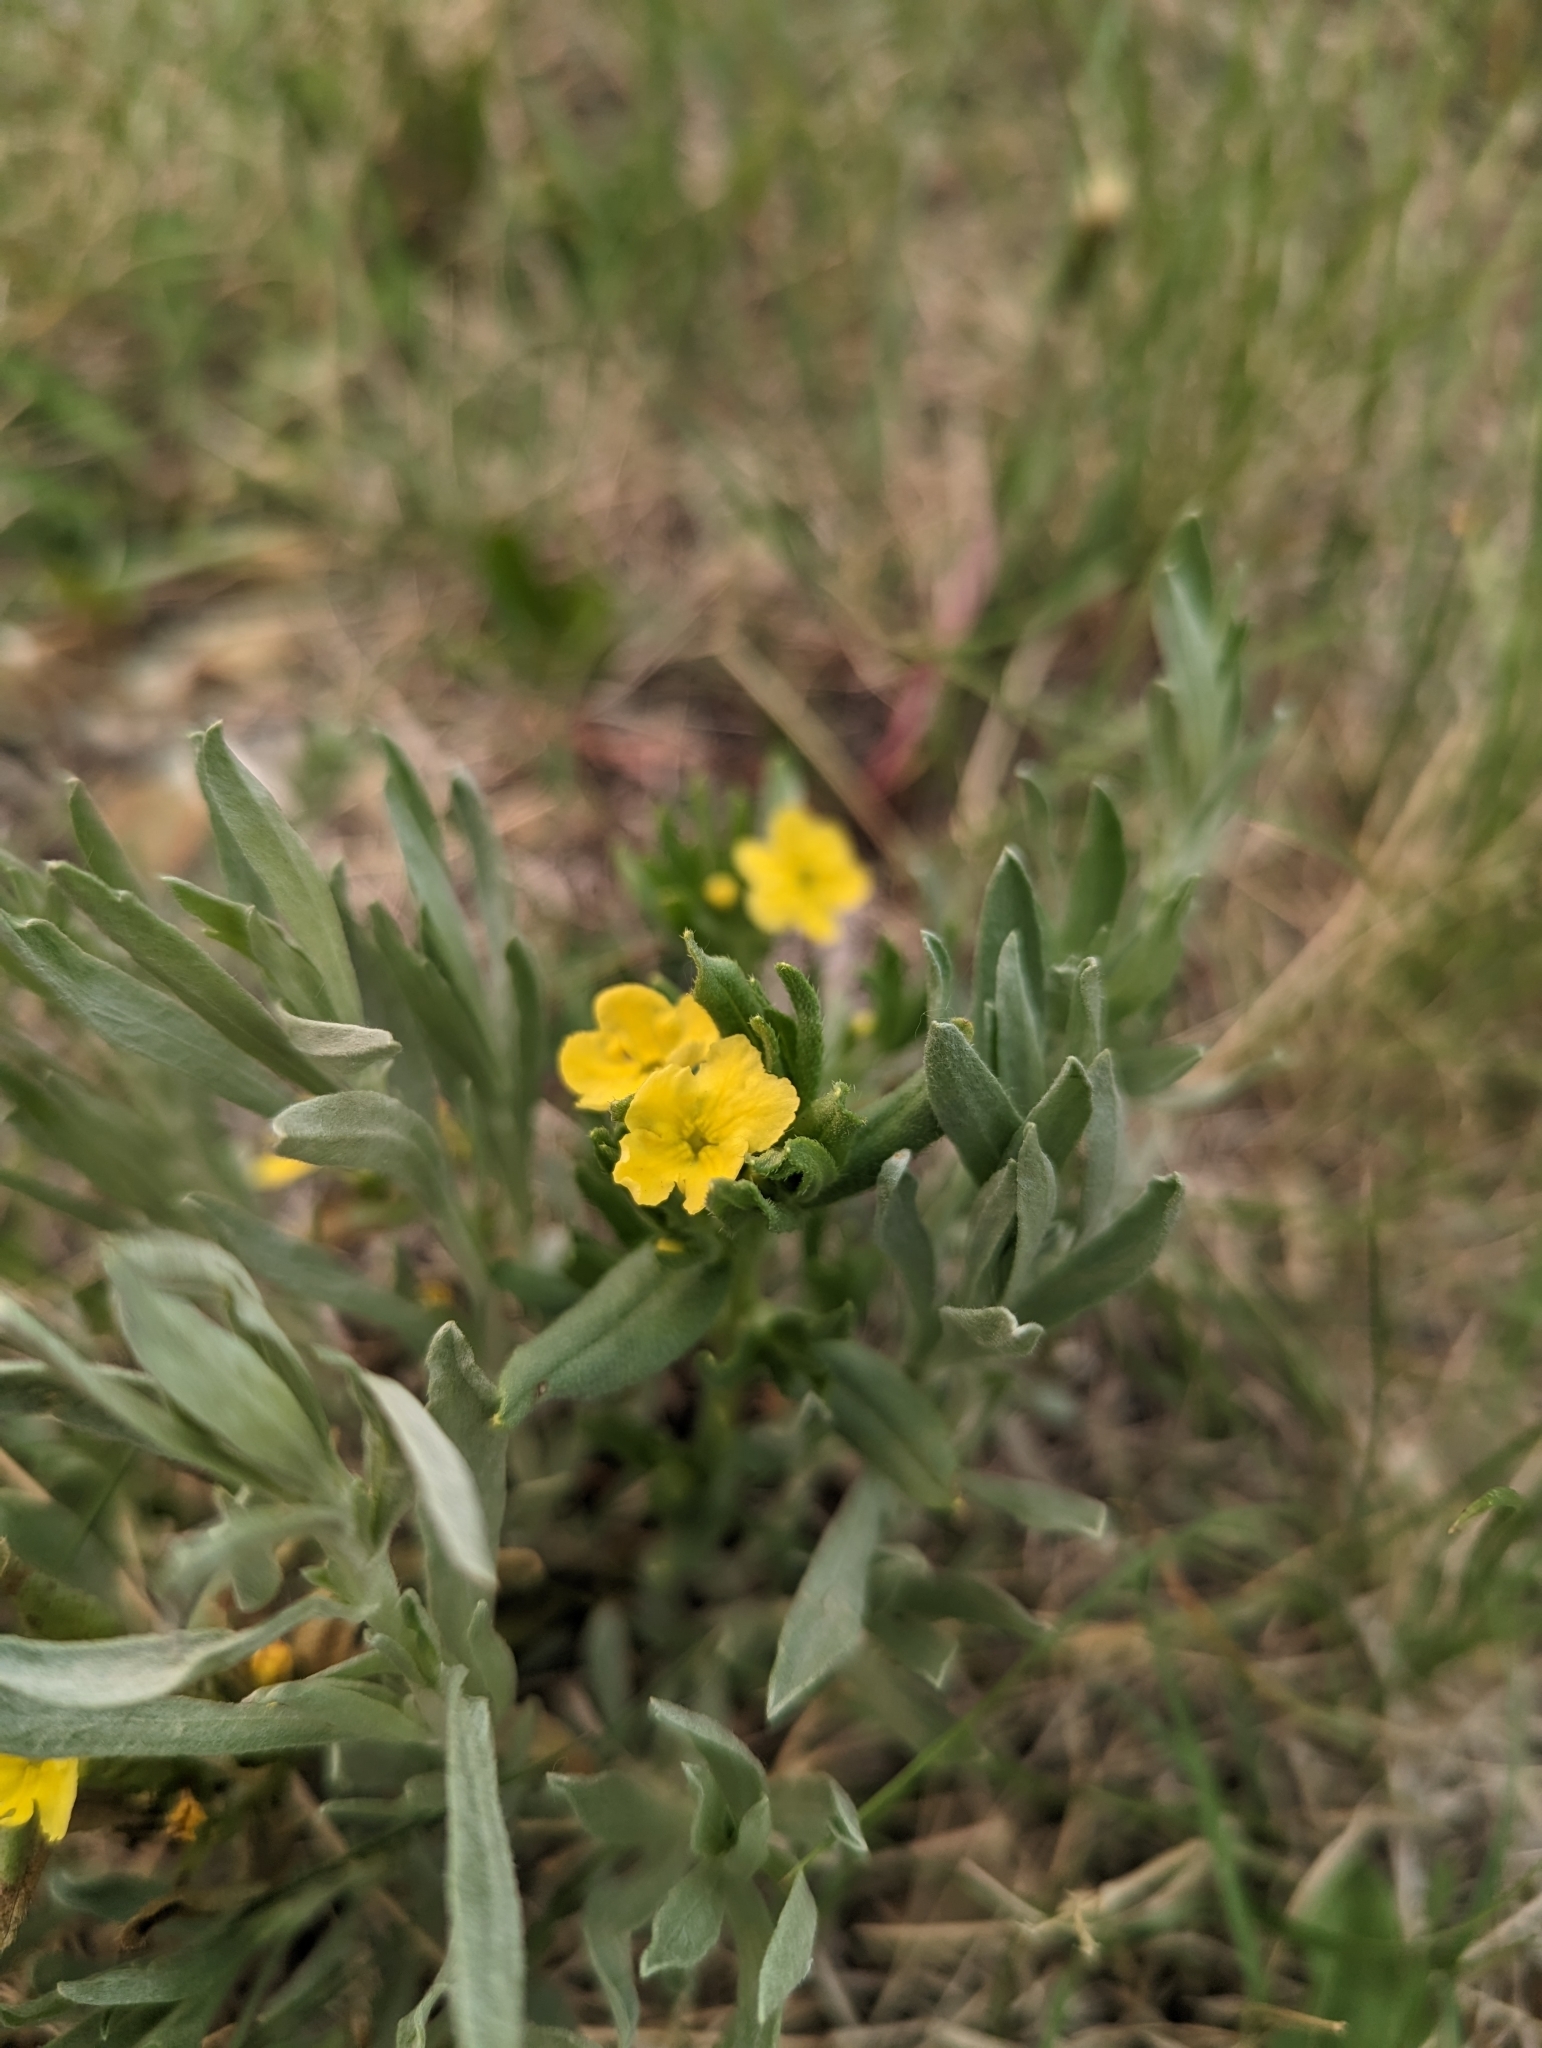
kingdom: Plantae
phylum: Tracheophyta
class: Magnoliopsida
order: Boraginales
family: Boraginaceae
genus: Lithospermum
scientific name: Lithospermum incisum
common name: Fringed gromwell
